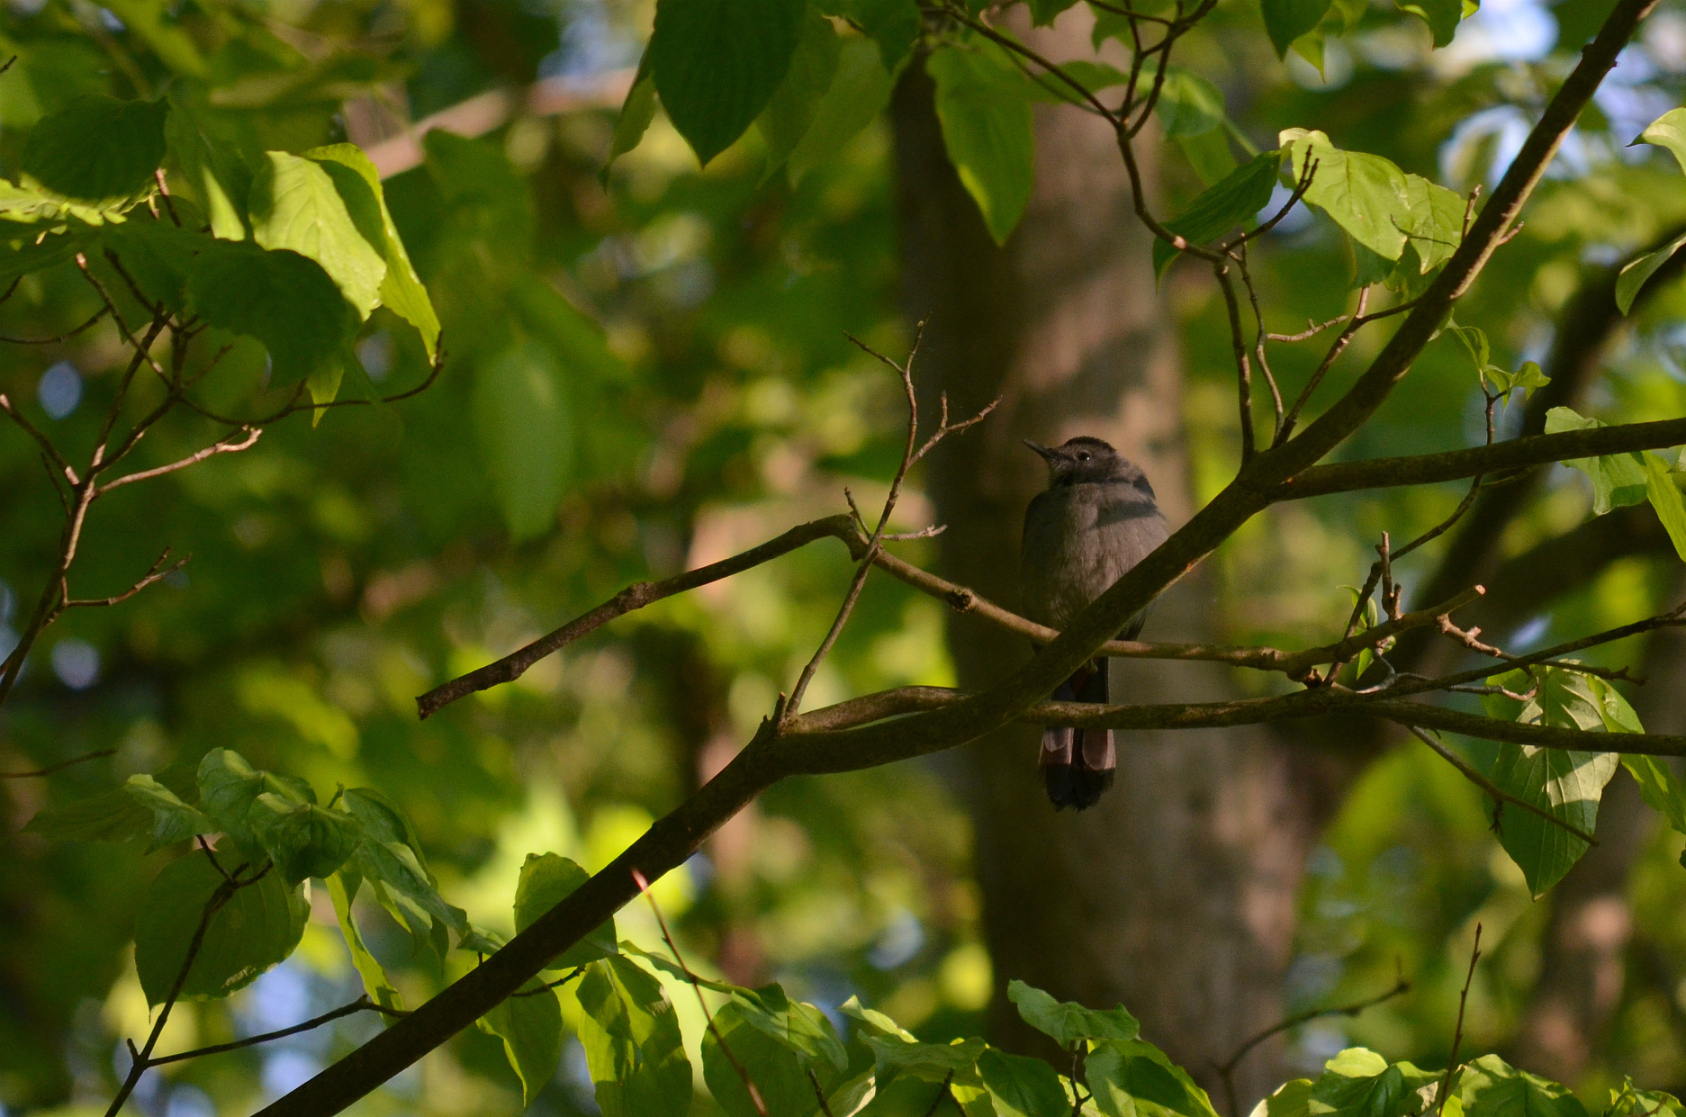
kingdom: Animalia
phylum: Chordata
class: Aves
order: Passeriformes
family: Mimidae
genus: Dumetella
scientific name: Dumetella carolinensis
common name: Gray catbird
